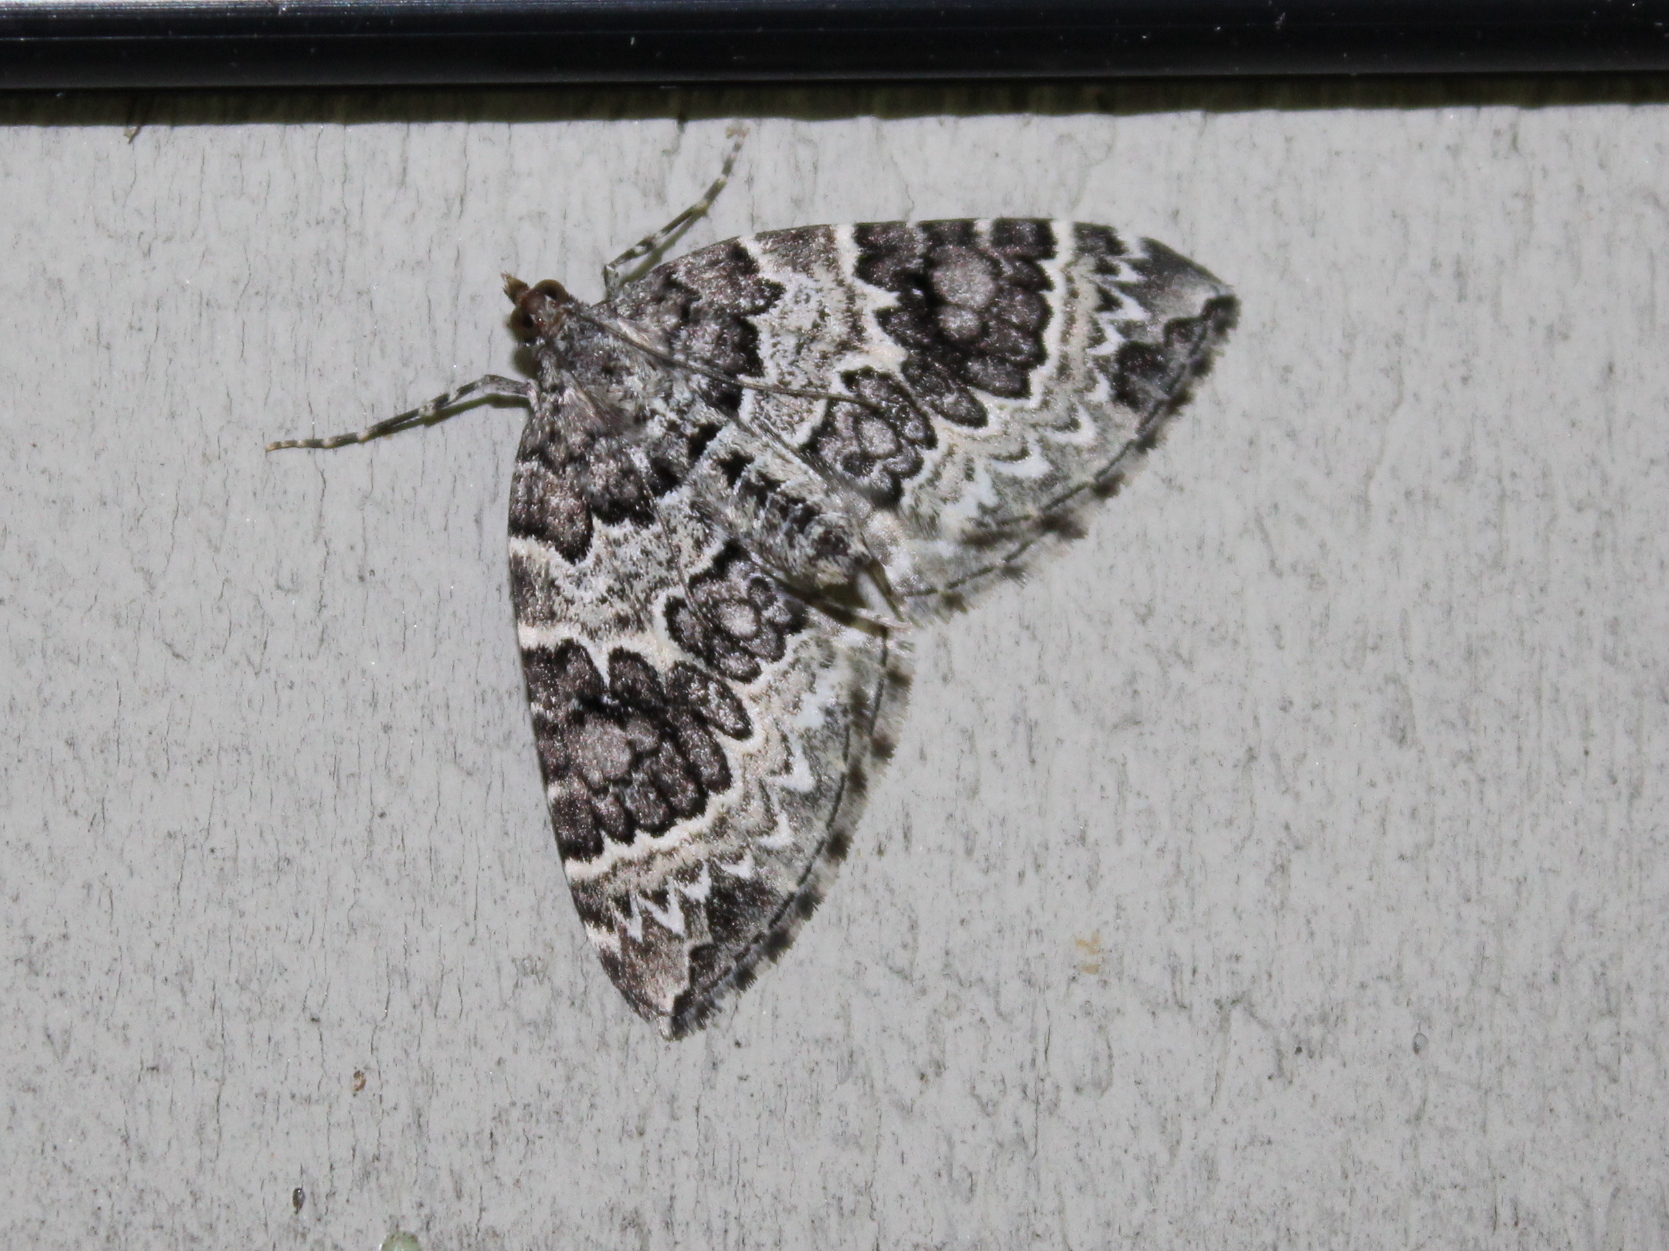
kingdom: Animalia
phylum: Arthropoda
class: Insecta
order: Lepidoptera
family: Geometridae
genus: Eulithis
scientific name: Eulithis explanata
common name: White eulithis
